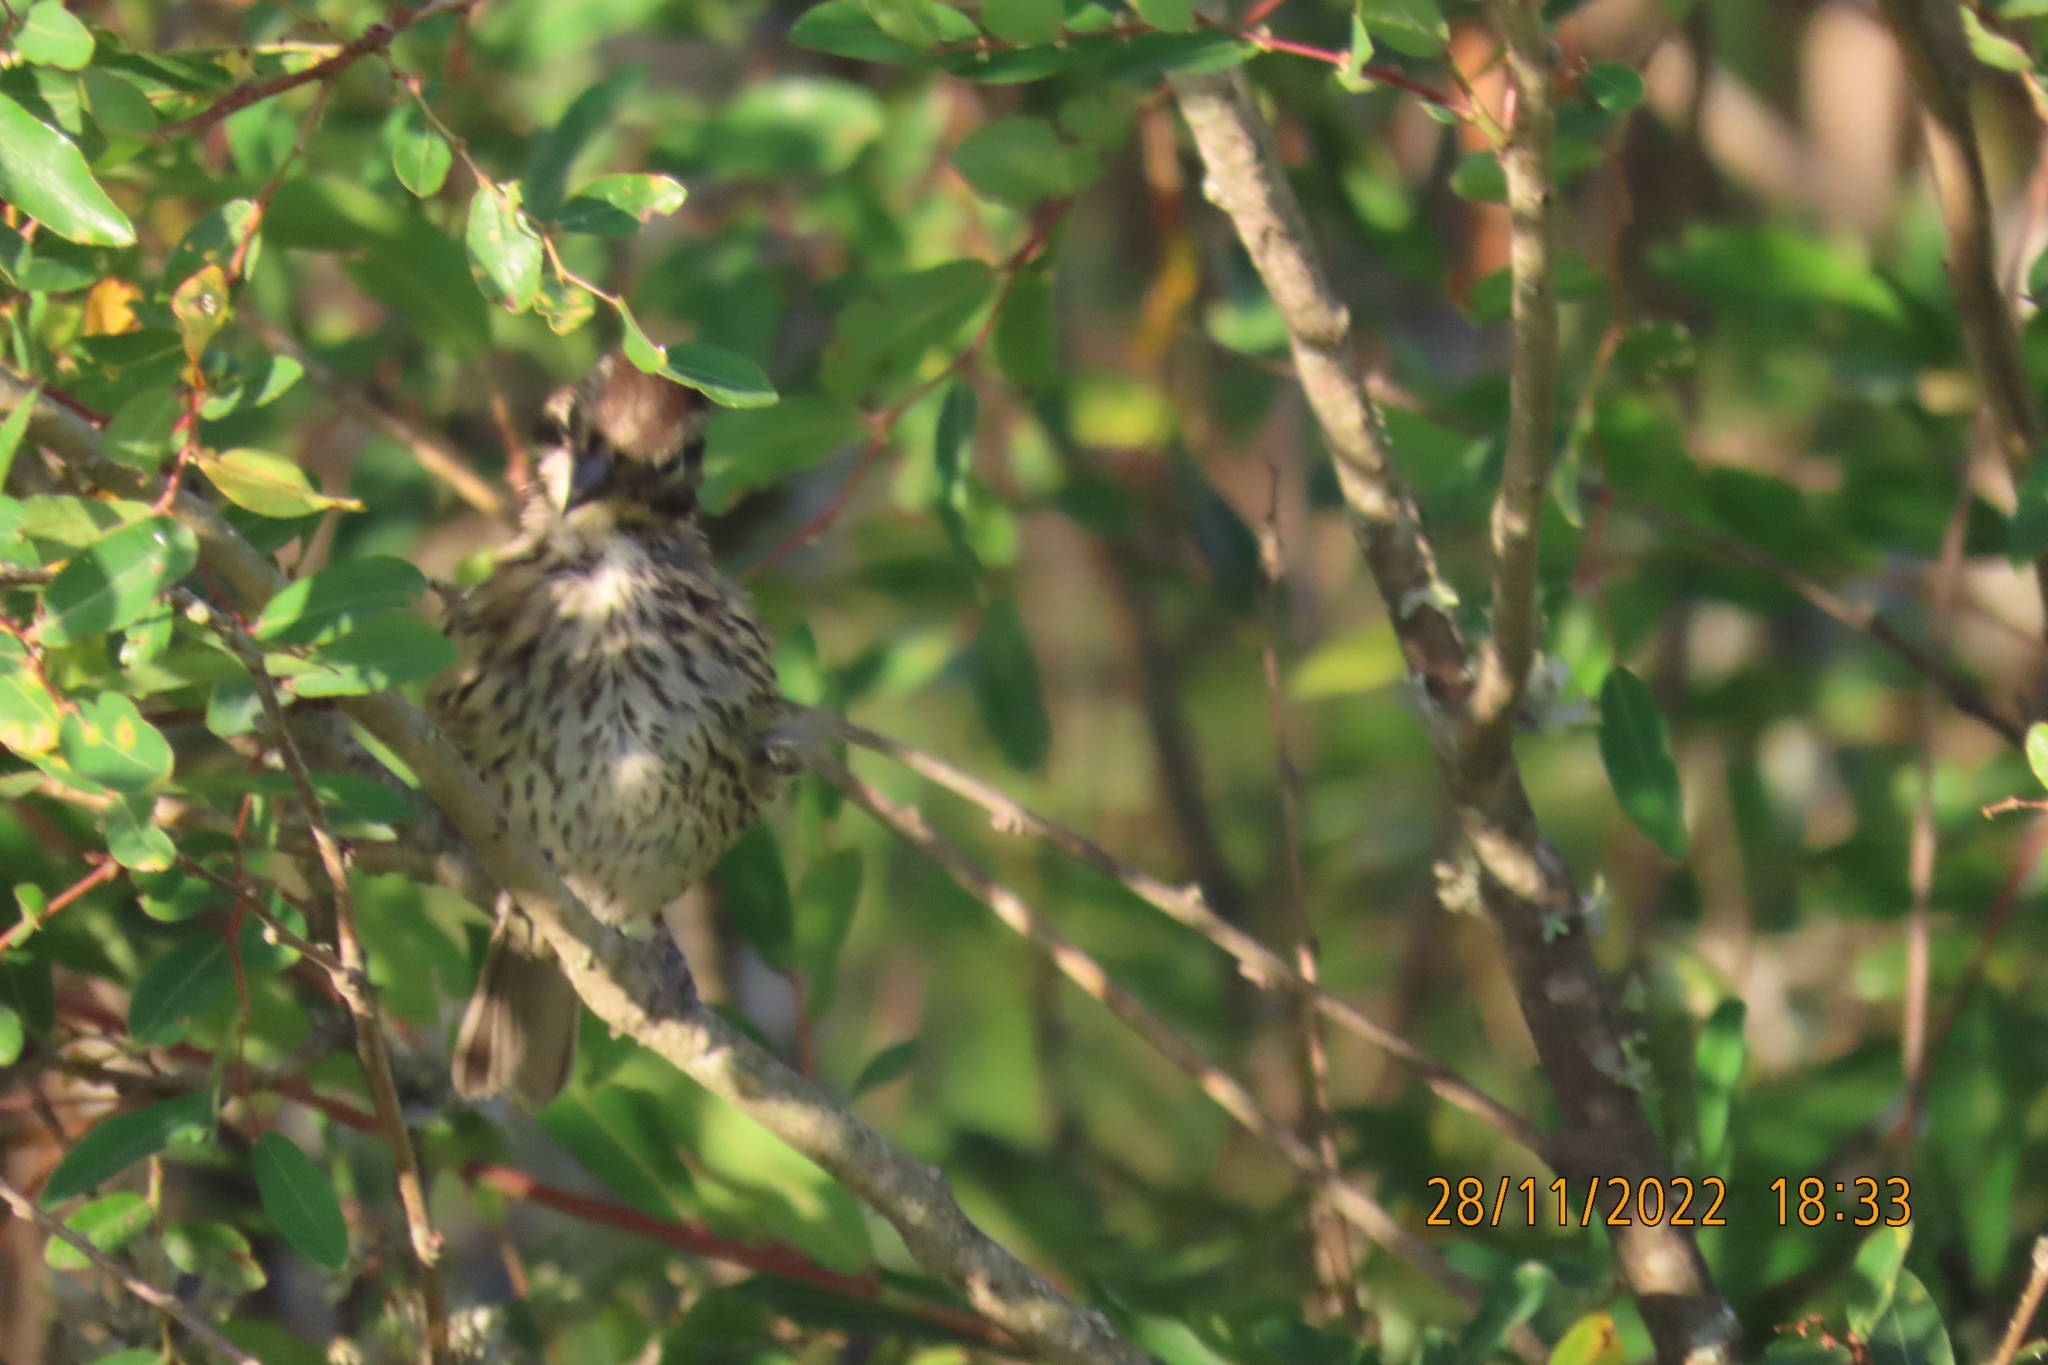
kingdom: Animalia
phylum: Chordata
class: Aves
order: Passeriformes
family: Passerellidae
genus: Zonotrichia
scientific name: Zonotrichia capensis
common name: Rufous-collared sparrow
